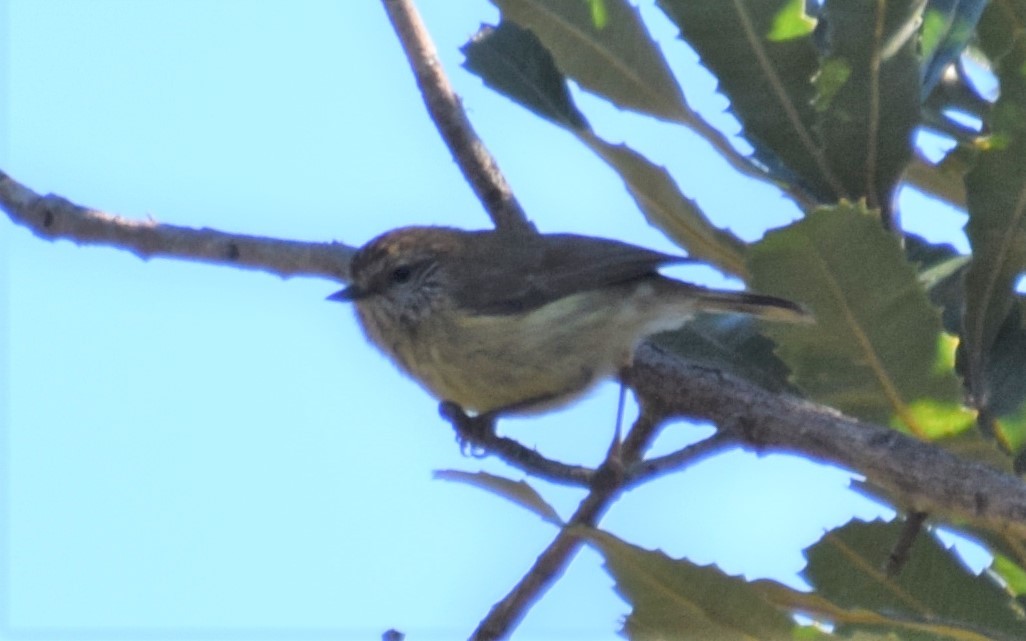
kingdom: Animalia
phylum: Chordata
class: Aves
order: Passeriformes
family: Acanthizidae
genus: Acanthiza
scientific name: Acanthiza lineata
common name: Striated thornbill
